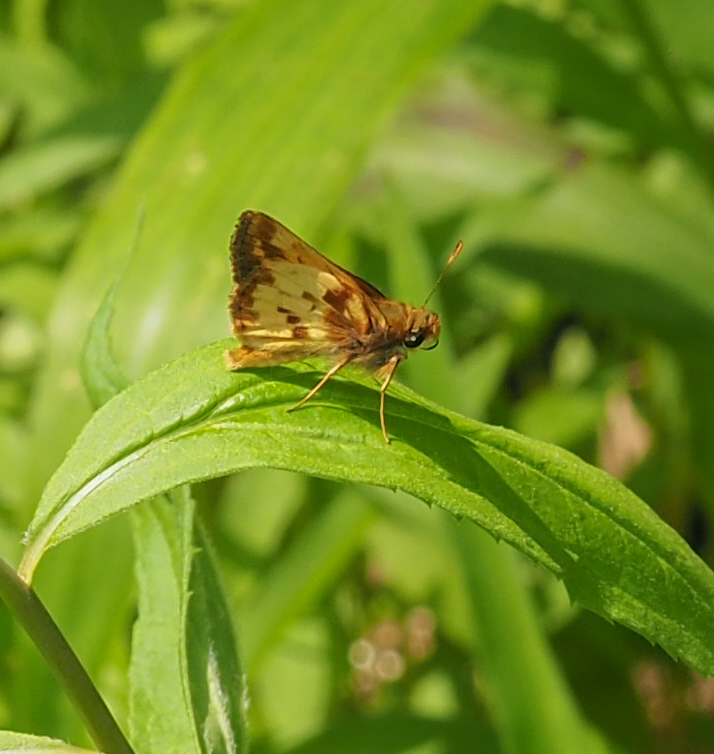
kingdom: Animalia
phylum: Arthropoda
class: Insecta
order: Lepidoptera
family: Hesperiidae
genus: Lon
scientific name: Lon zabulon
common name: Zabulon skipper
